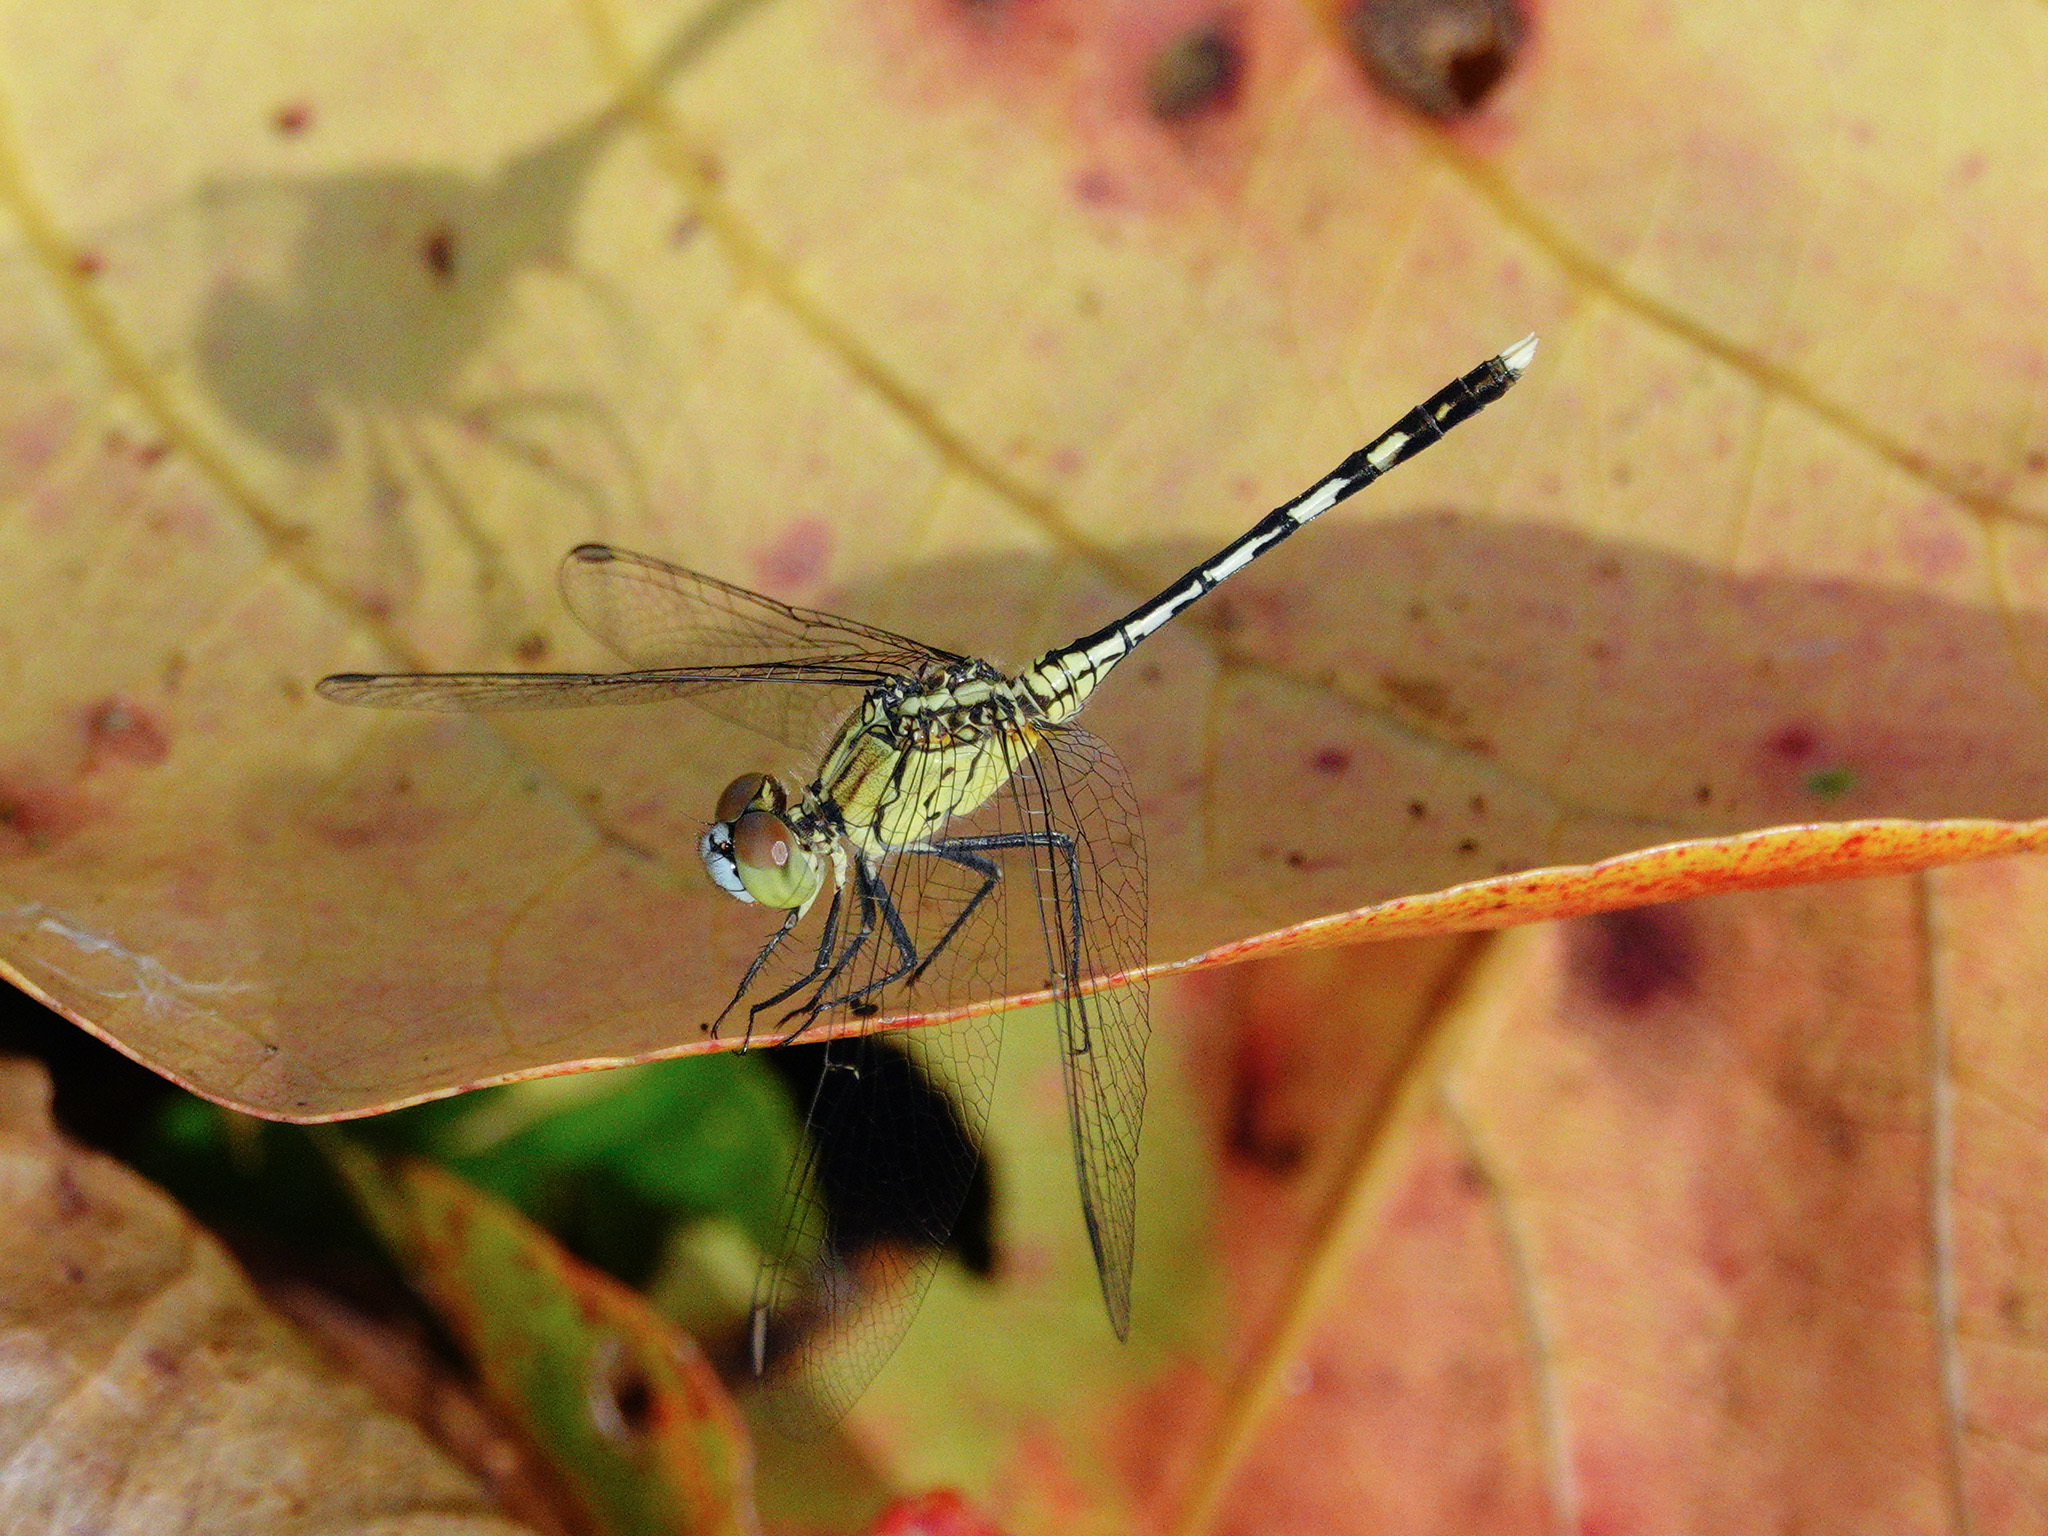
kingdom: Animalia
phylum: Arthropoda
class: Insecta
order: Odonata
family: Libellulidae
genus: Diplacodes
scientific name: Diplacodes trivialis
